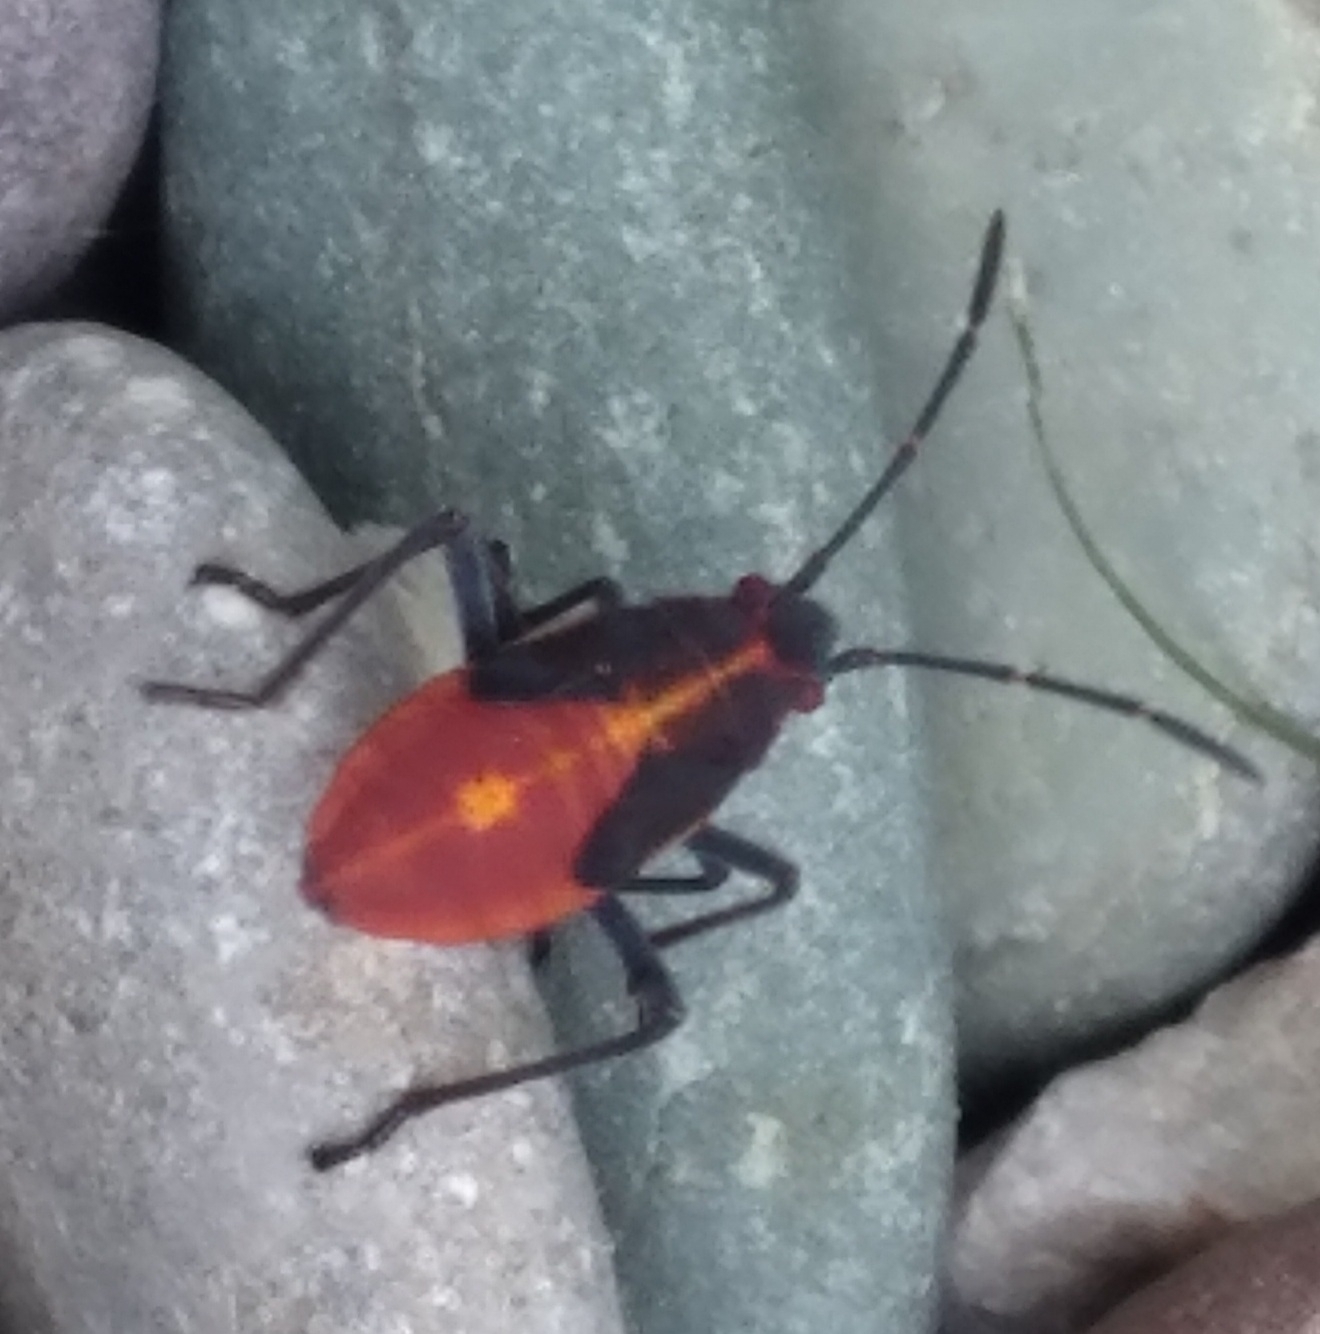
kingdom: Animalia
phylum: Arthropoda
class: Insecta
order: Hemiptera
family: Rhopalidae
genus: Boisea
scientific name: Boisea trivittata
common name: Boxelder bug
